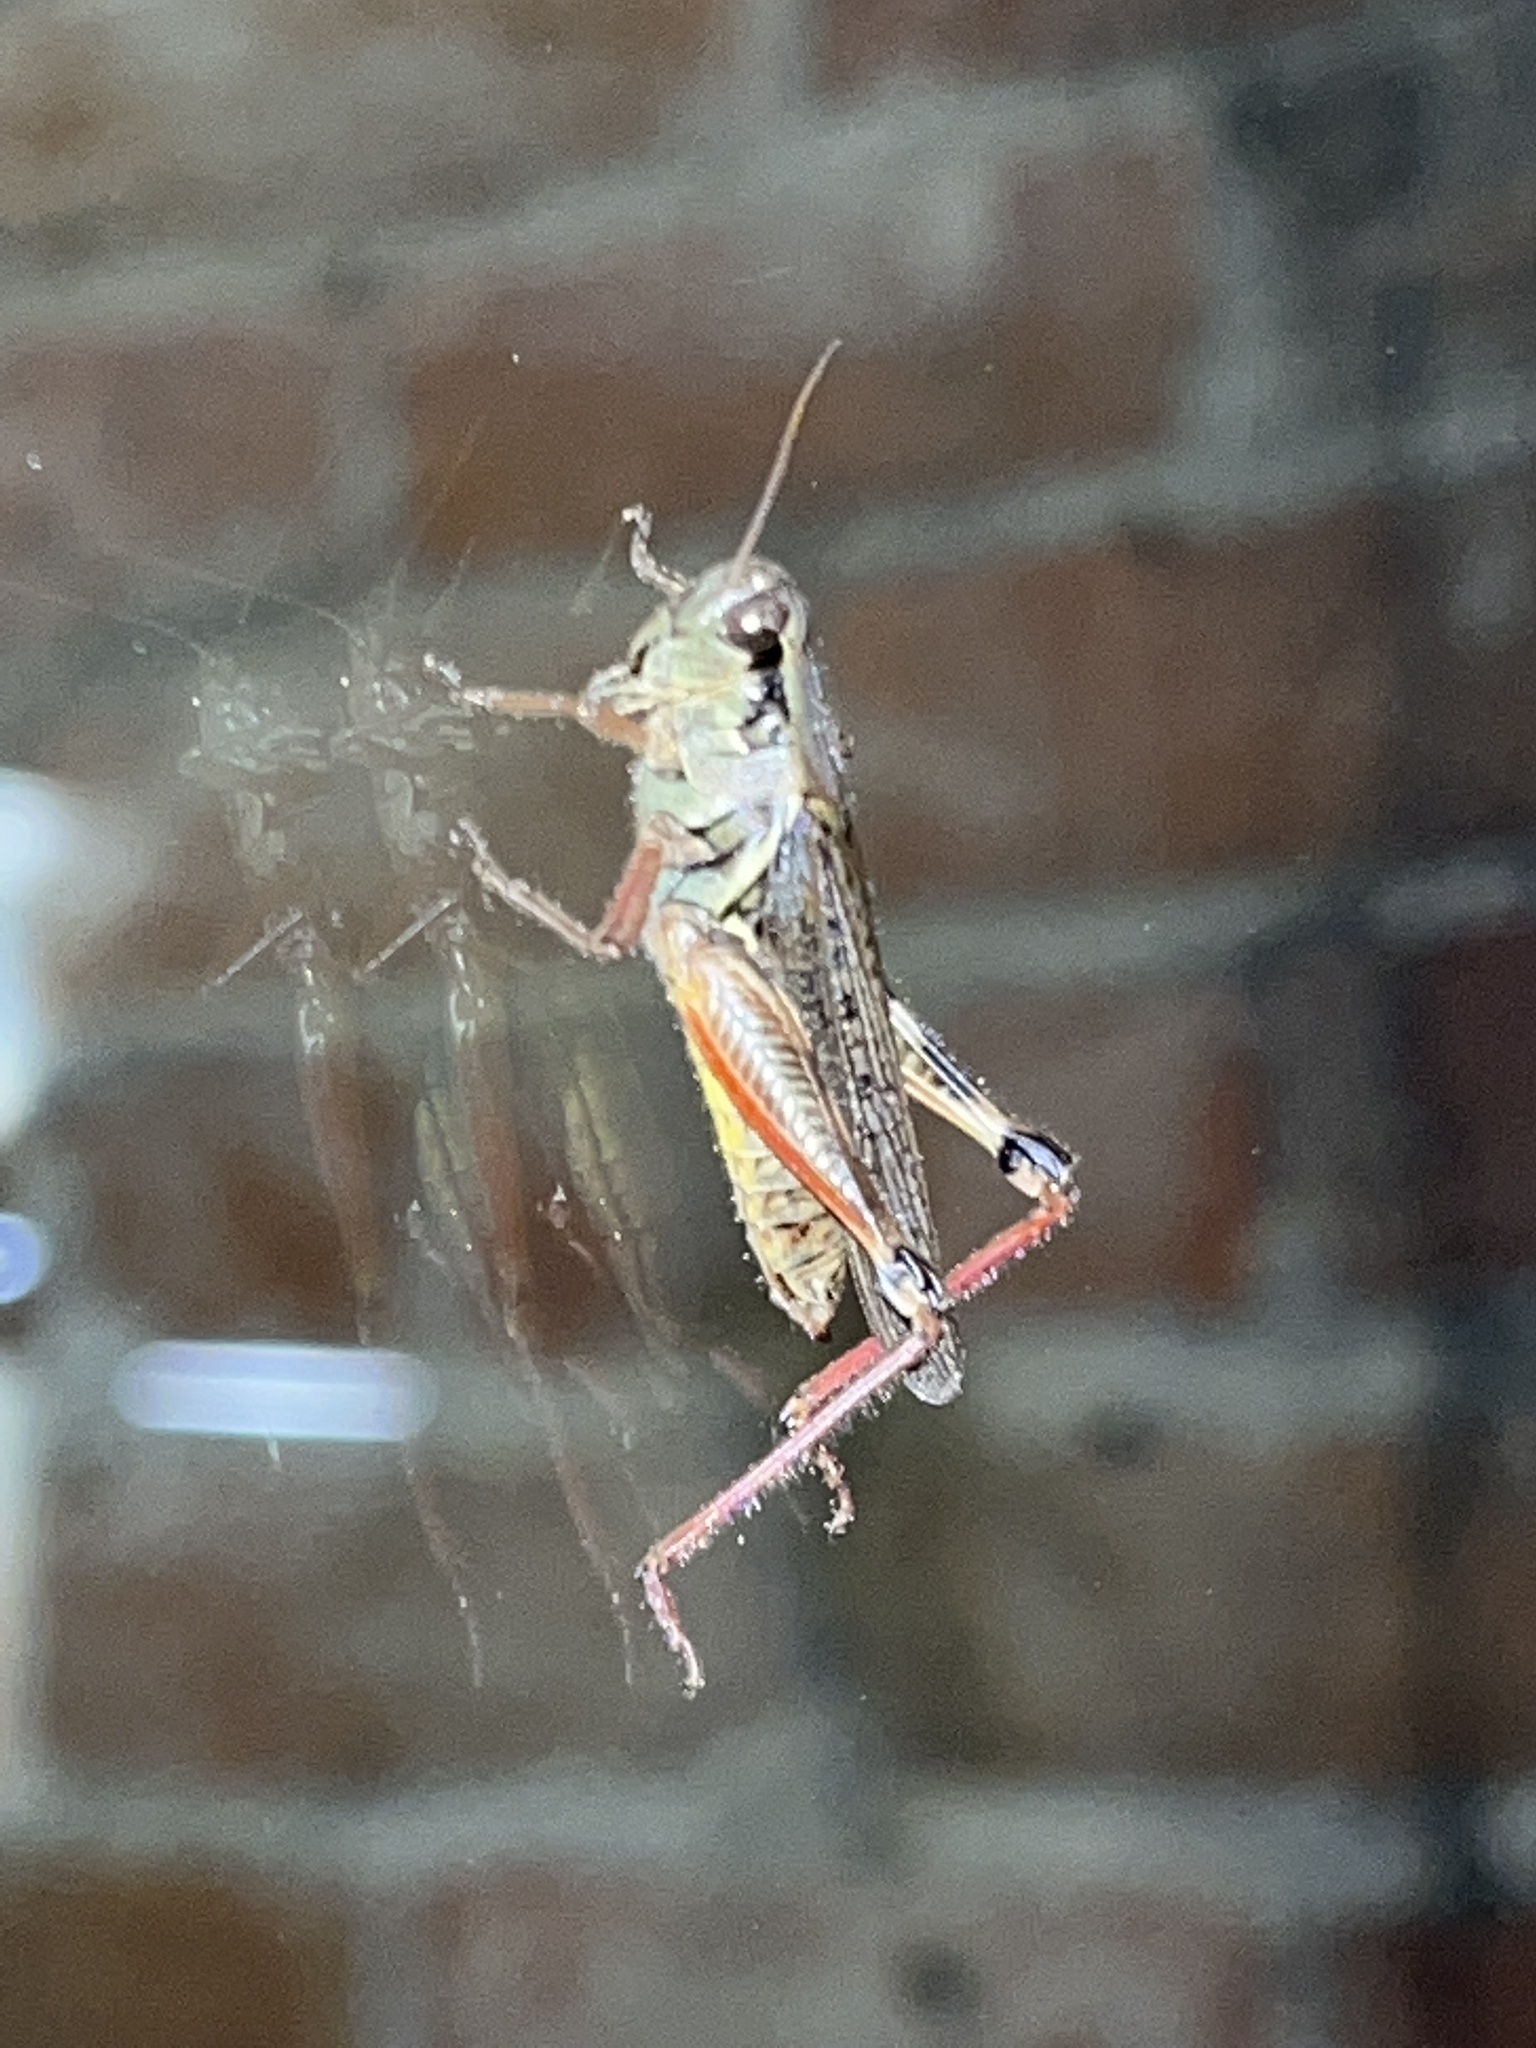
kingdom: Animalia
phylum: Arthropoda
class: Insecta
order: Orthoptera
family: Acrididae
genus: Melanoplus
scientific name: Melanoplus femurrubrum
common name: Red-legged grasshopper
